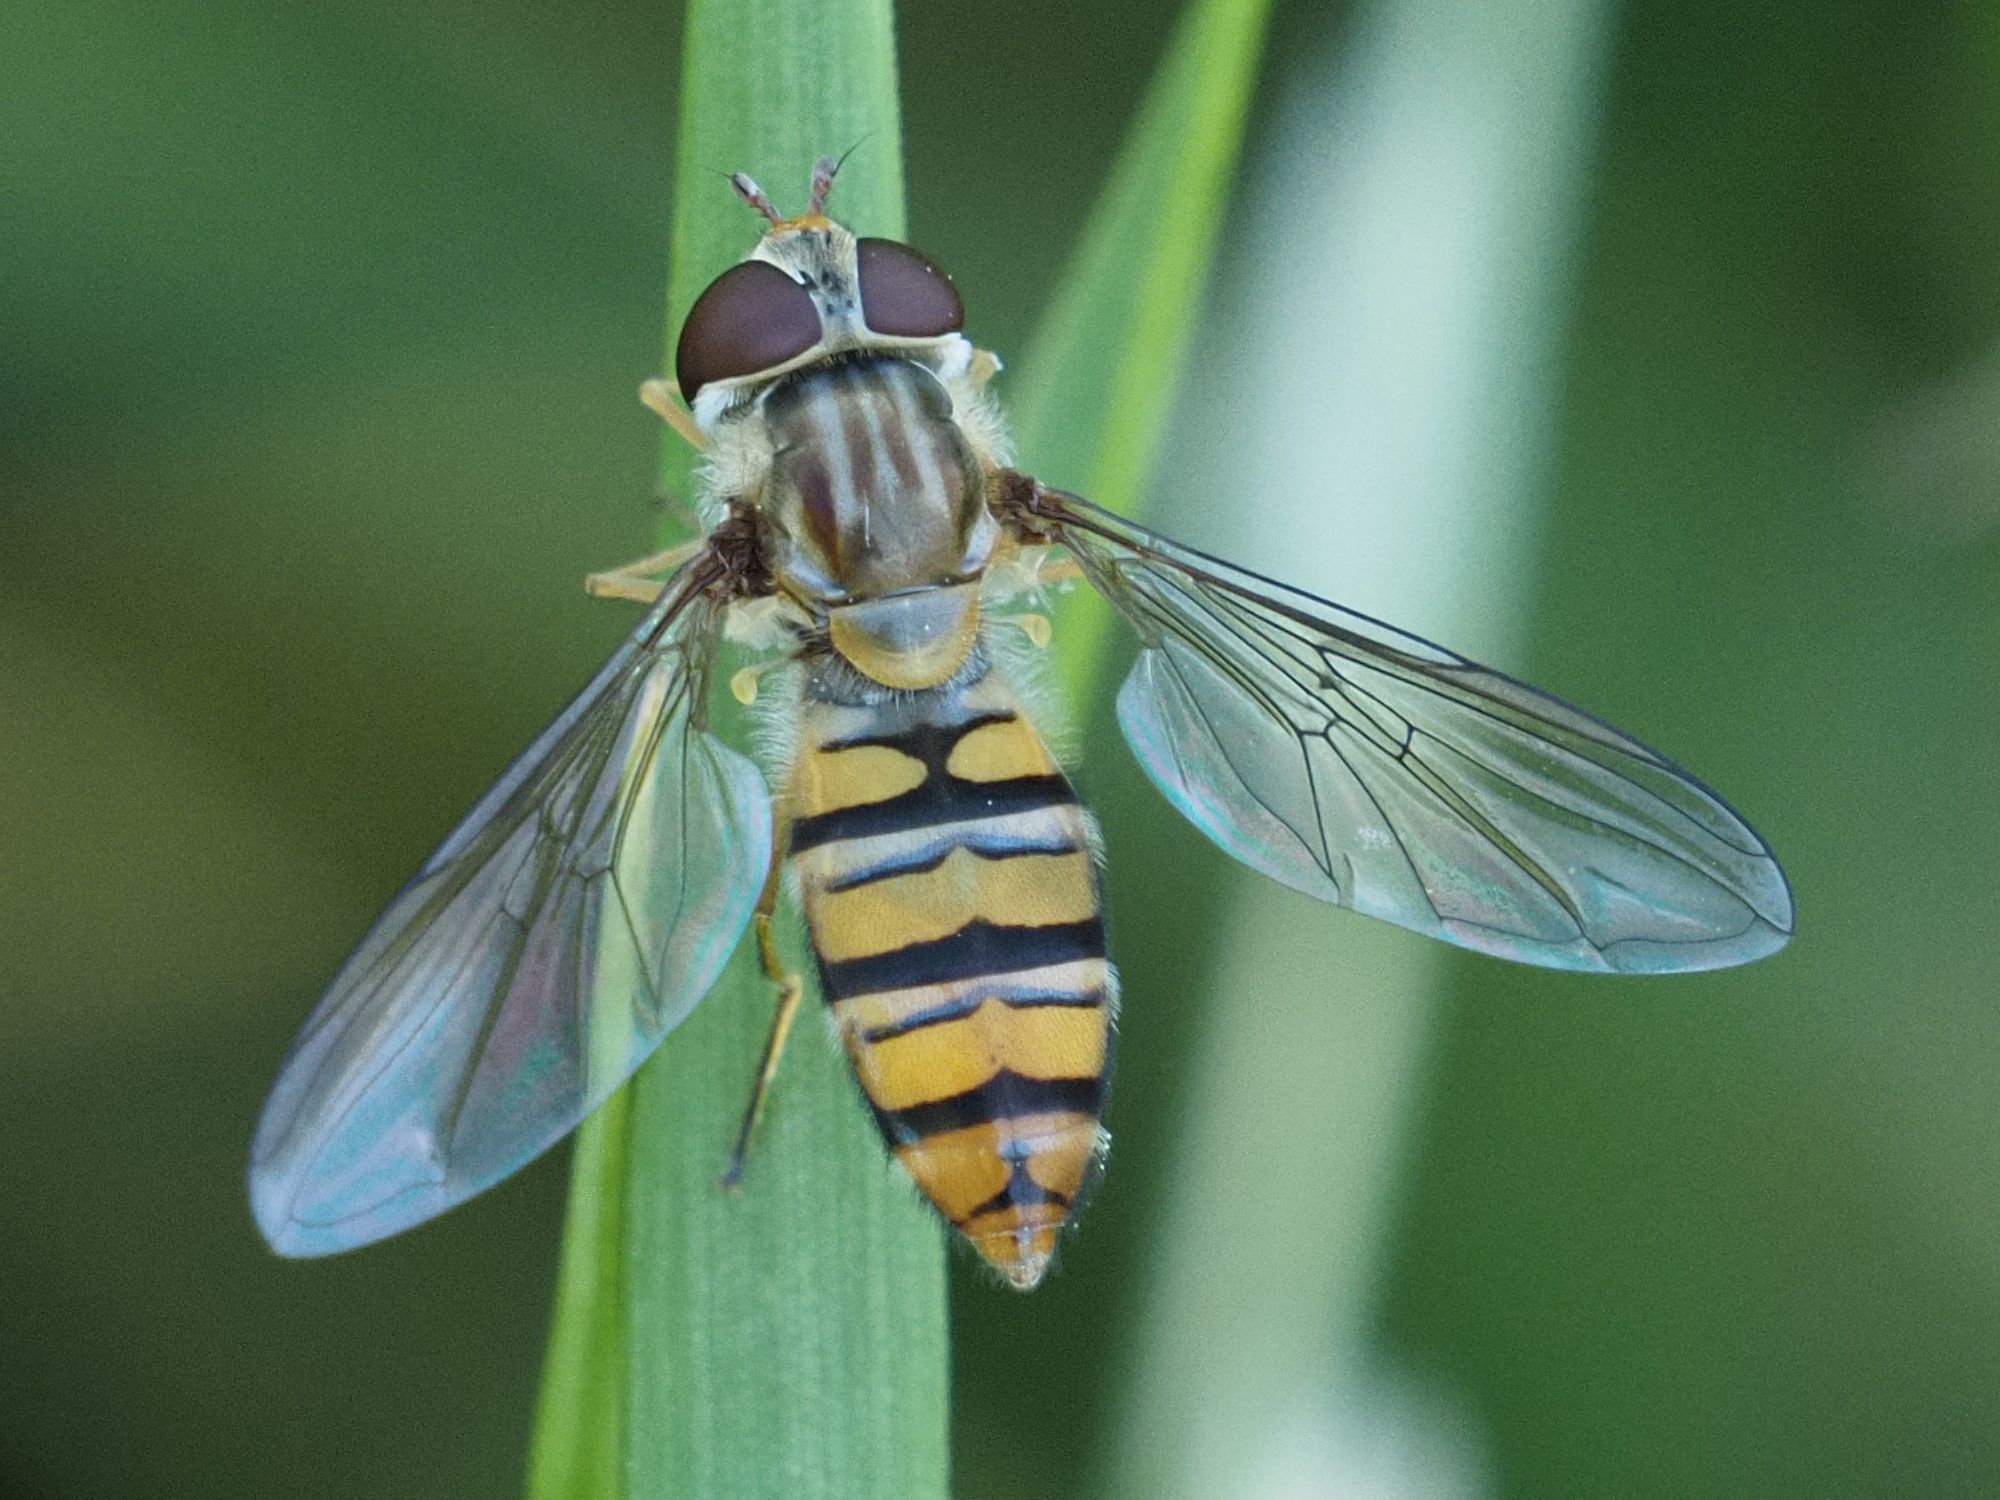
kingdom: Animalia
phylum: Arthropoda
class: Insecta
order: Diptera
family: Syrphidae
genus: Episyrphus
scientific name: Episyrphus balteatus
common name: Marmalade hoverfly
